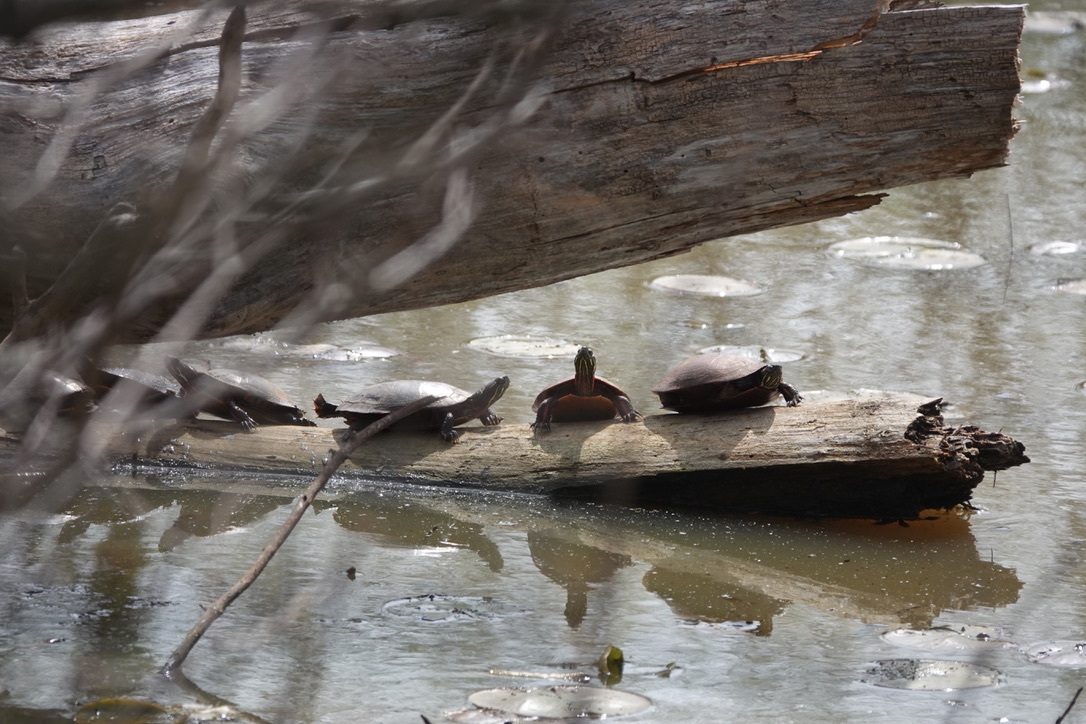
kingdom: Animalia
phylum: Chordata
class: Testudines
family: Emydidae
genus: Chrysemys
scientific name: Chrysemys picta
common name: Painted turtle
